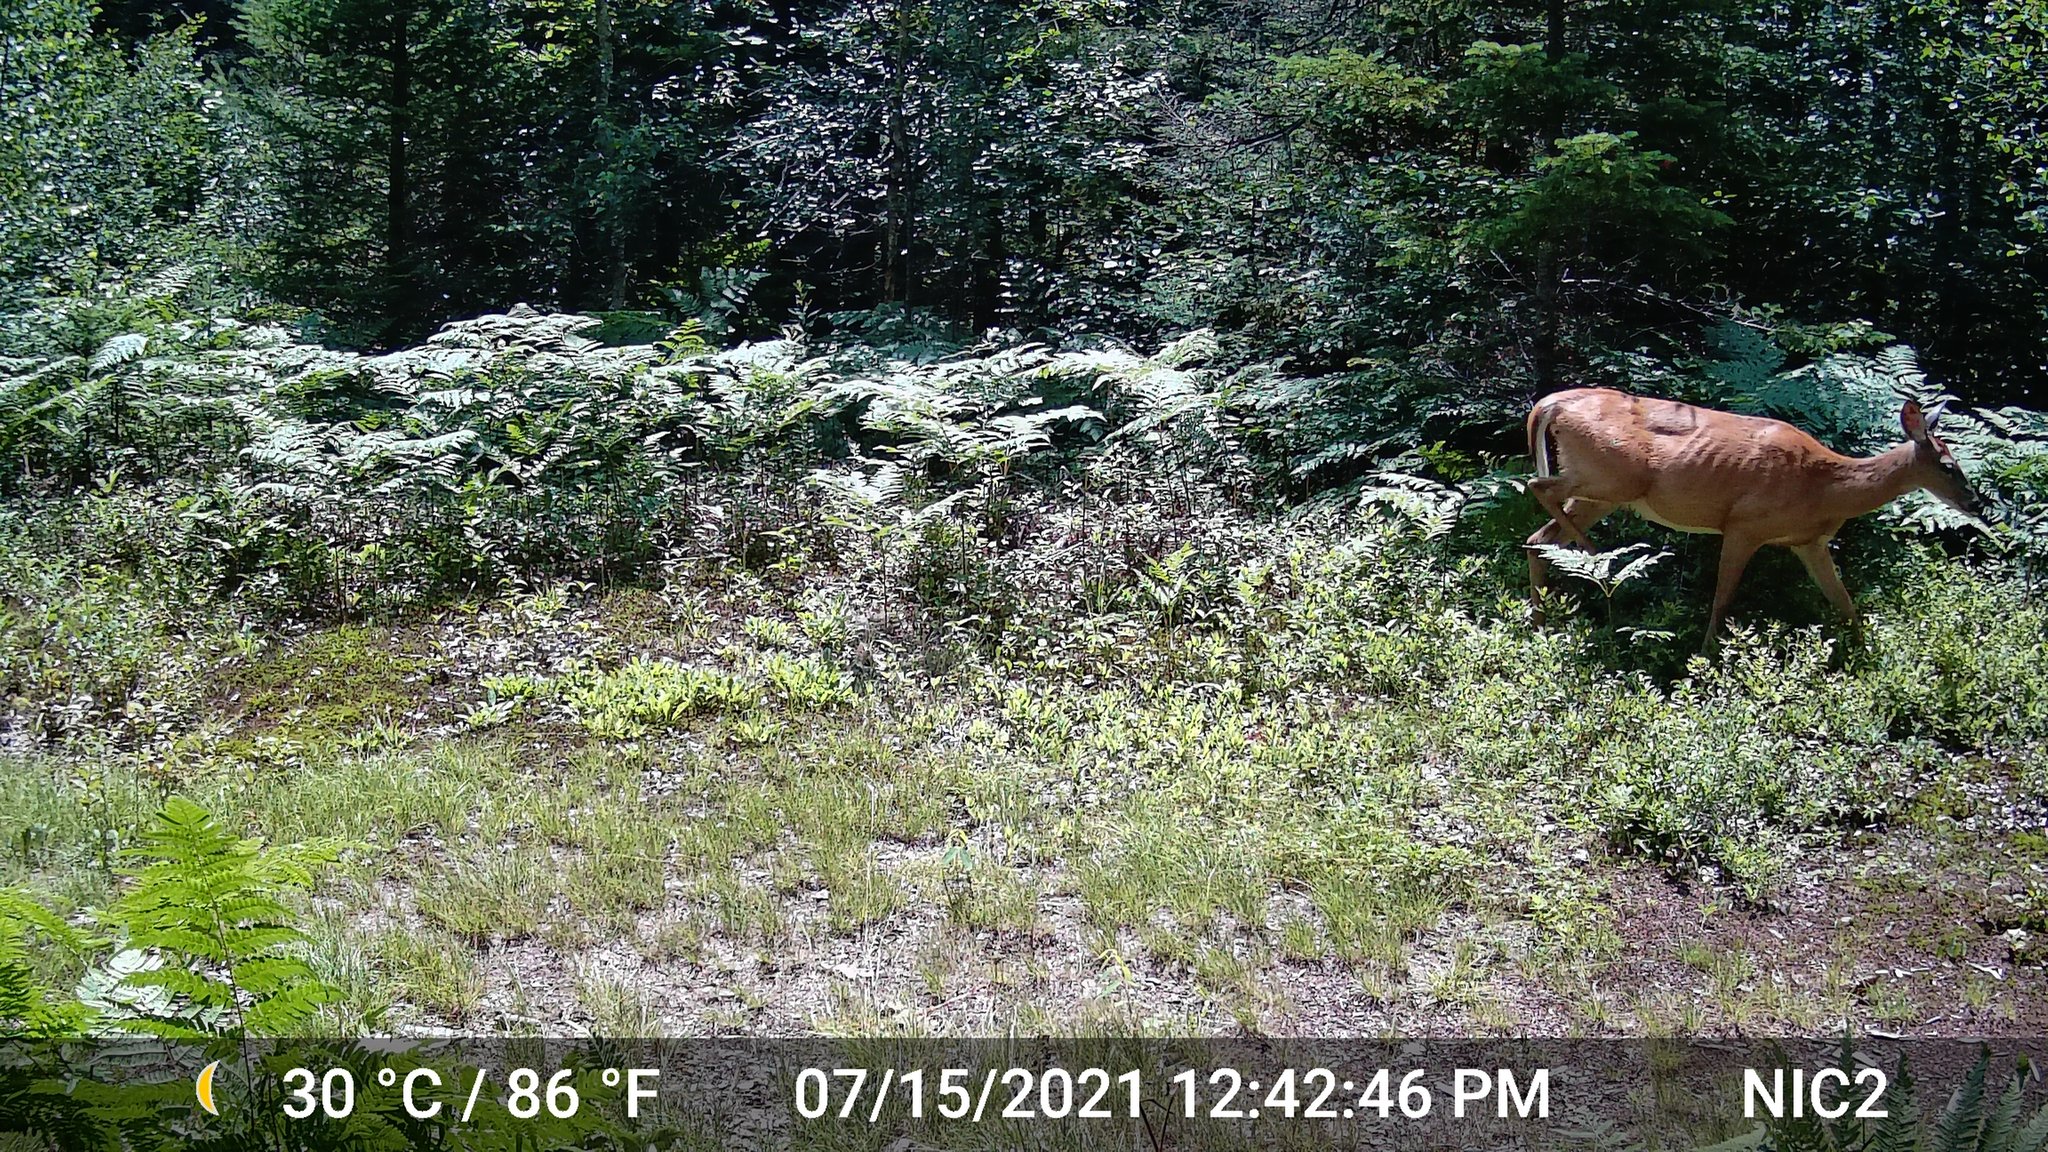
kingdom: Animalia
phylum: Chordata
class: Mammalia
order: Artiodactyla
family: Cervidae
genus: Odocoileus
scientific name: Odocoileus virginianus
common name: White-tailed deer
